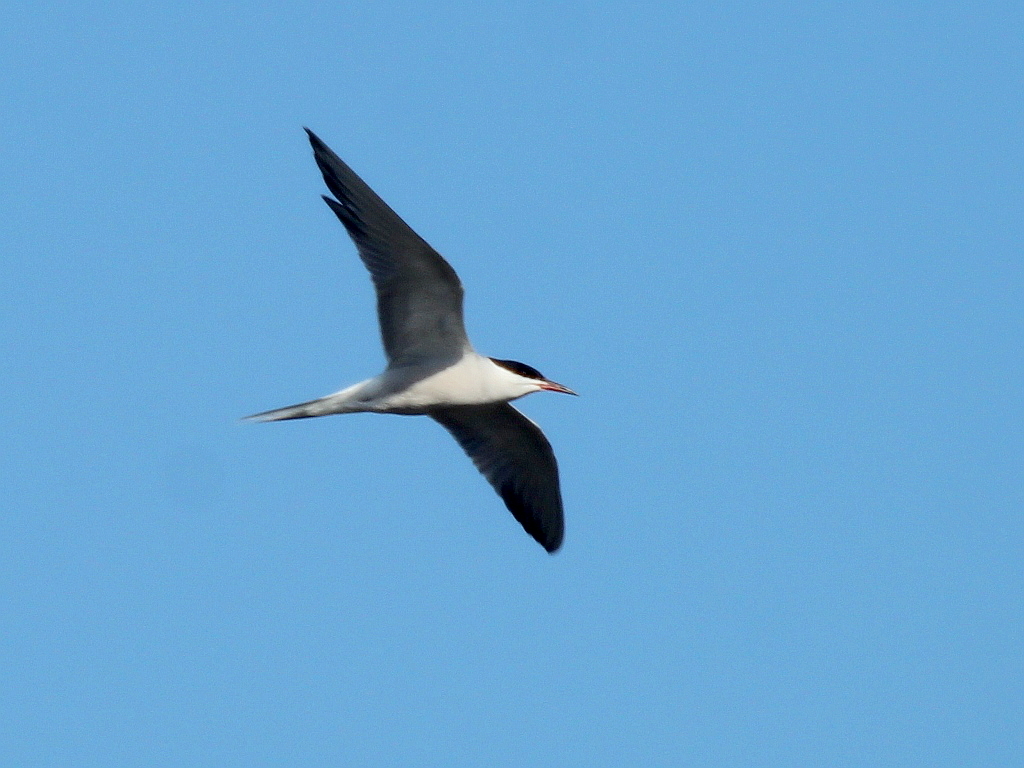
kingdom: Animalia
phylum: Chordata
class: Aves
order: Charadriiformes
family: Laridae
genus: Sterna
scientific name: Sterna hirundo
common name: Common tern
